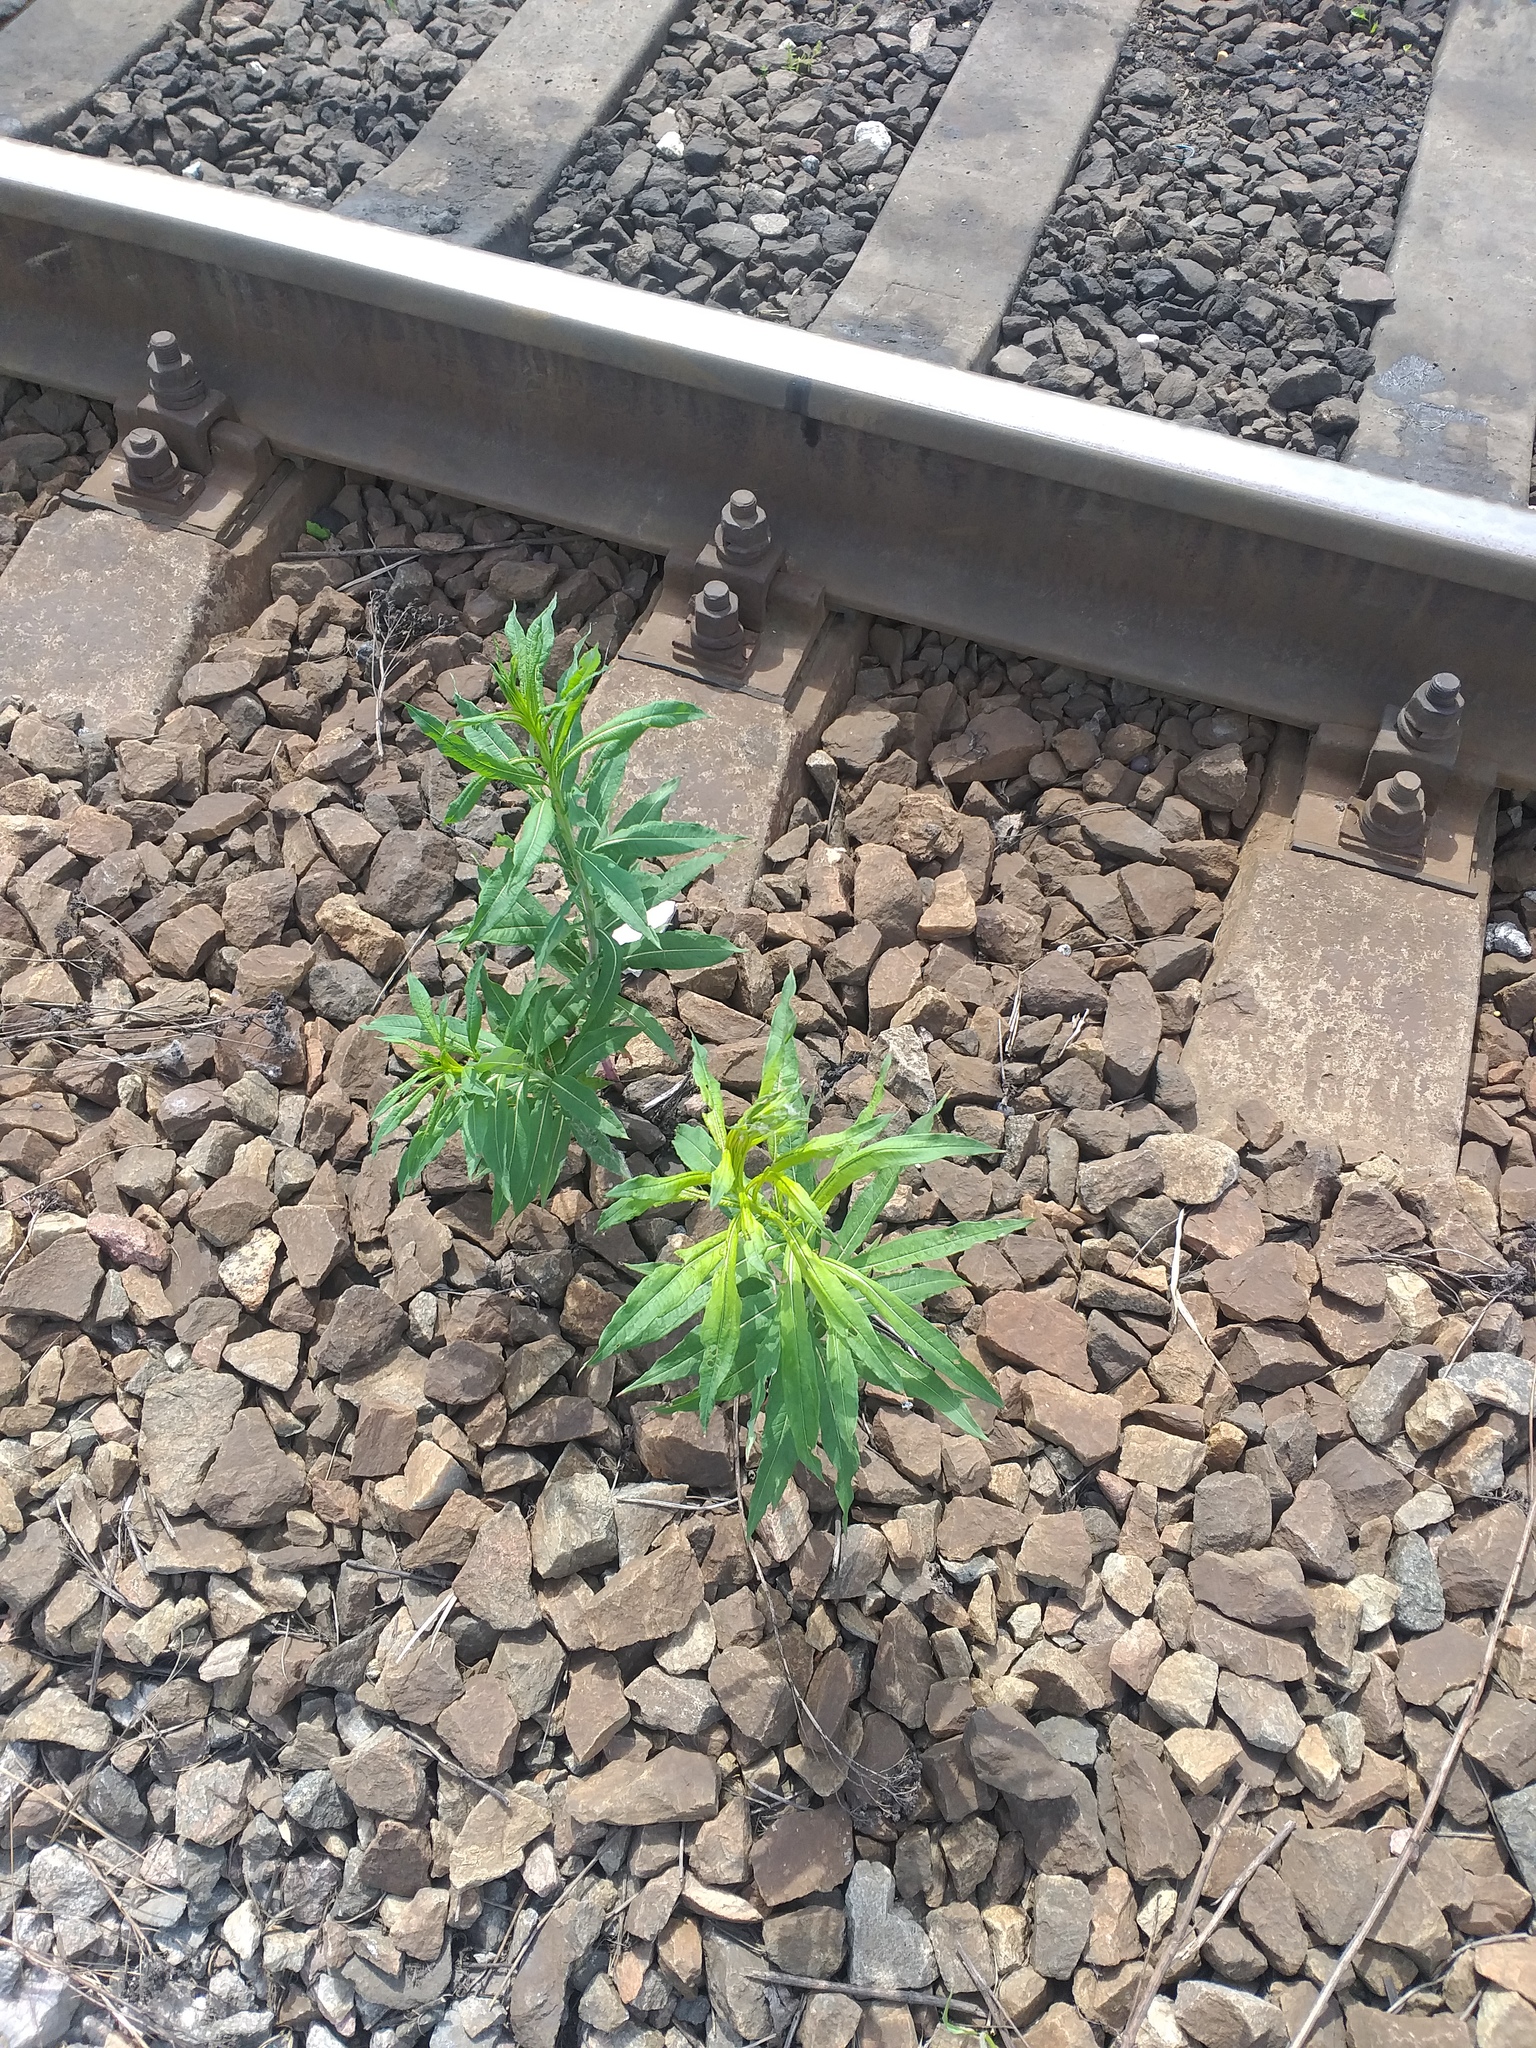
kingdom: Plantae
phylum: Tracheophyta
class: Magnoliopsida
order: Myrtales
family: Onagraceae
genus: Chamaenerion
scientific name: Chamaenerion angustifolium
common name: Fireweed
